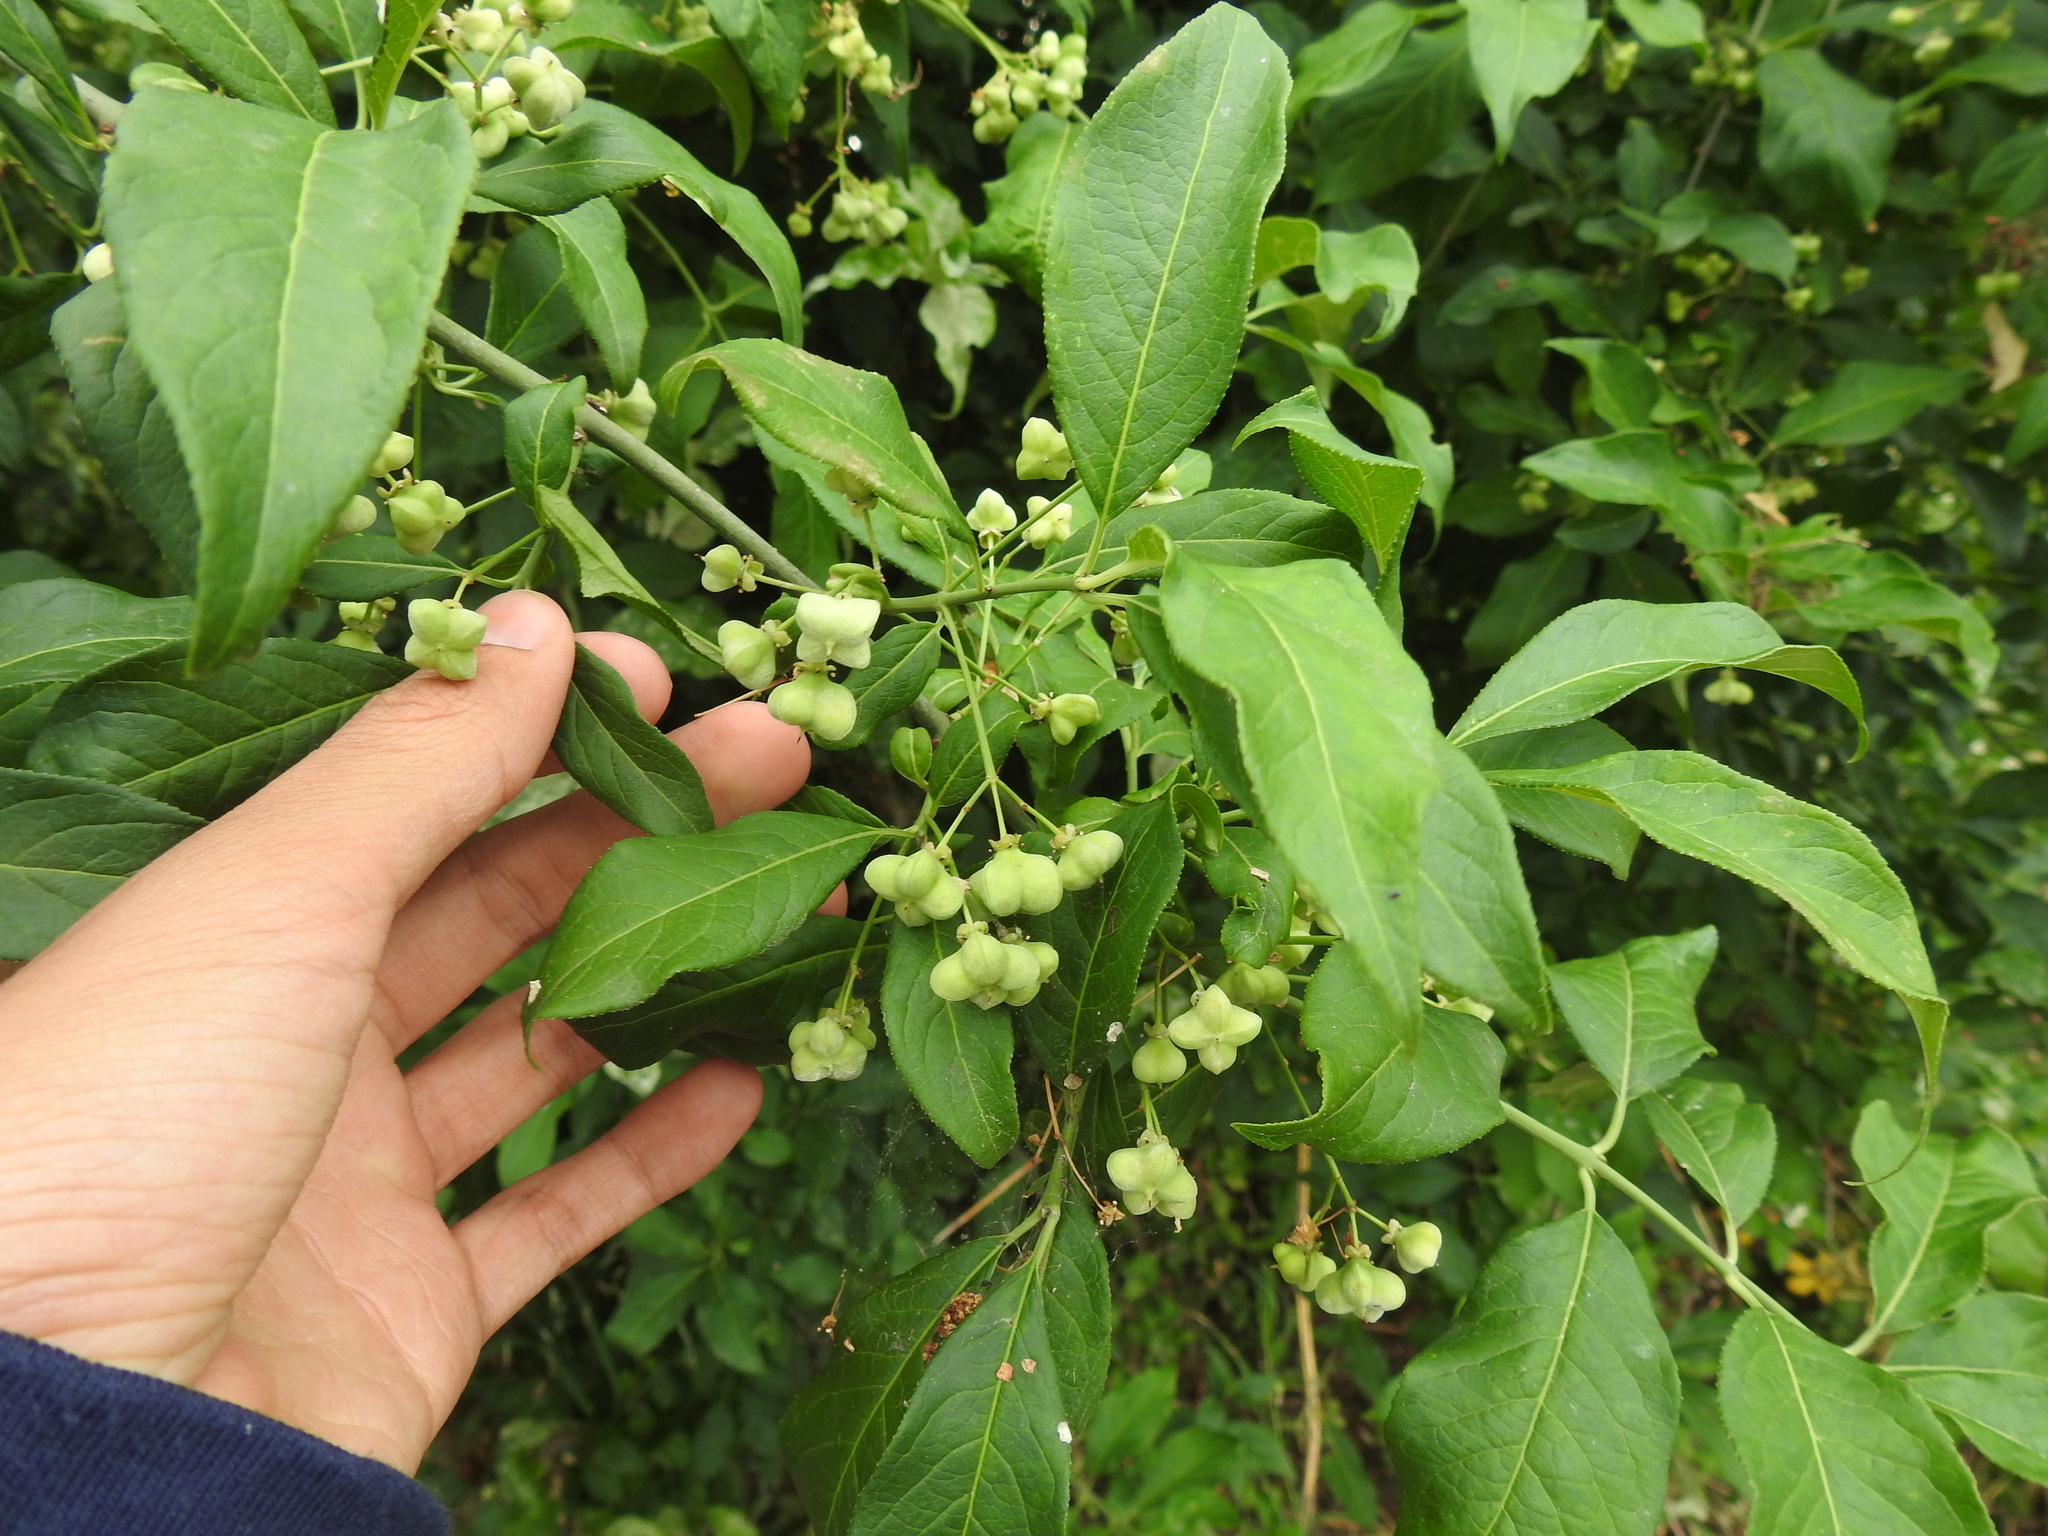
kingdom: Plantae
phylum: Tracheophyta
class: Magnoliopsida
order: Celastrales
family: Celastraceae
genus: Euonymus
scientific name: Euonymus europaeus
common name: Spindle
